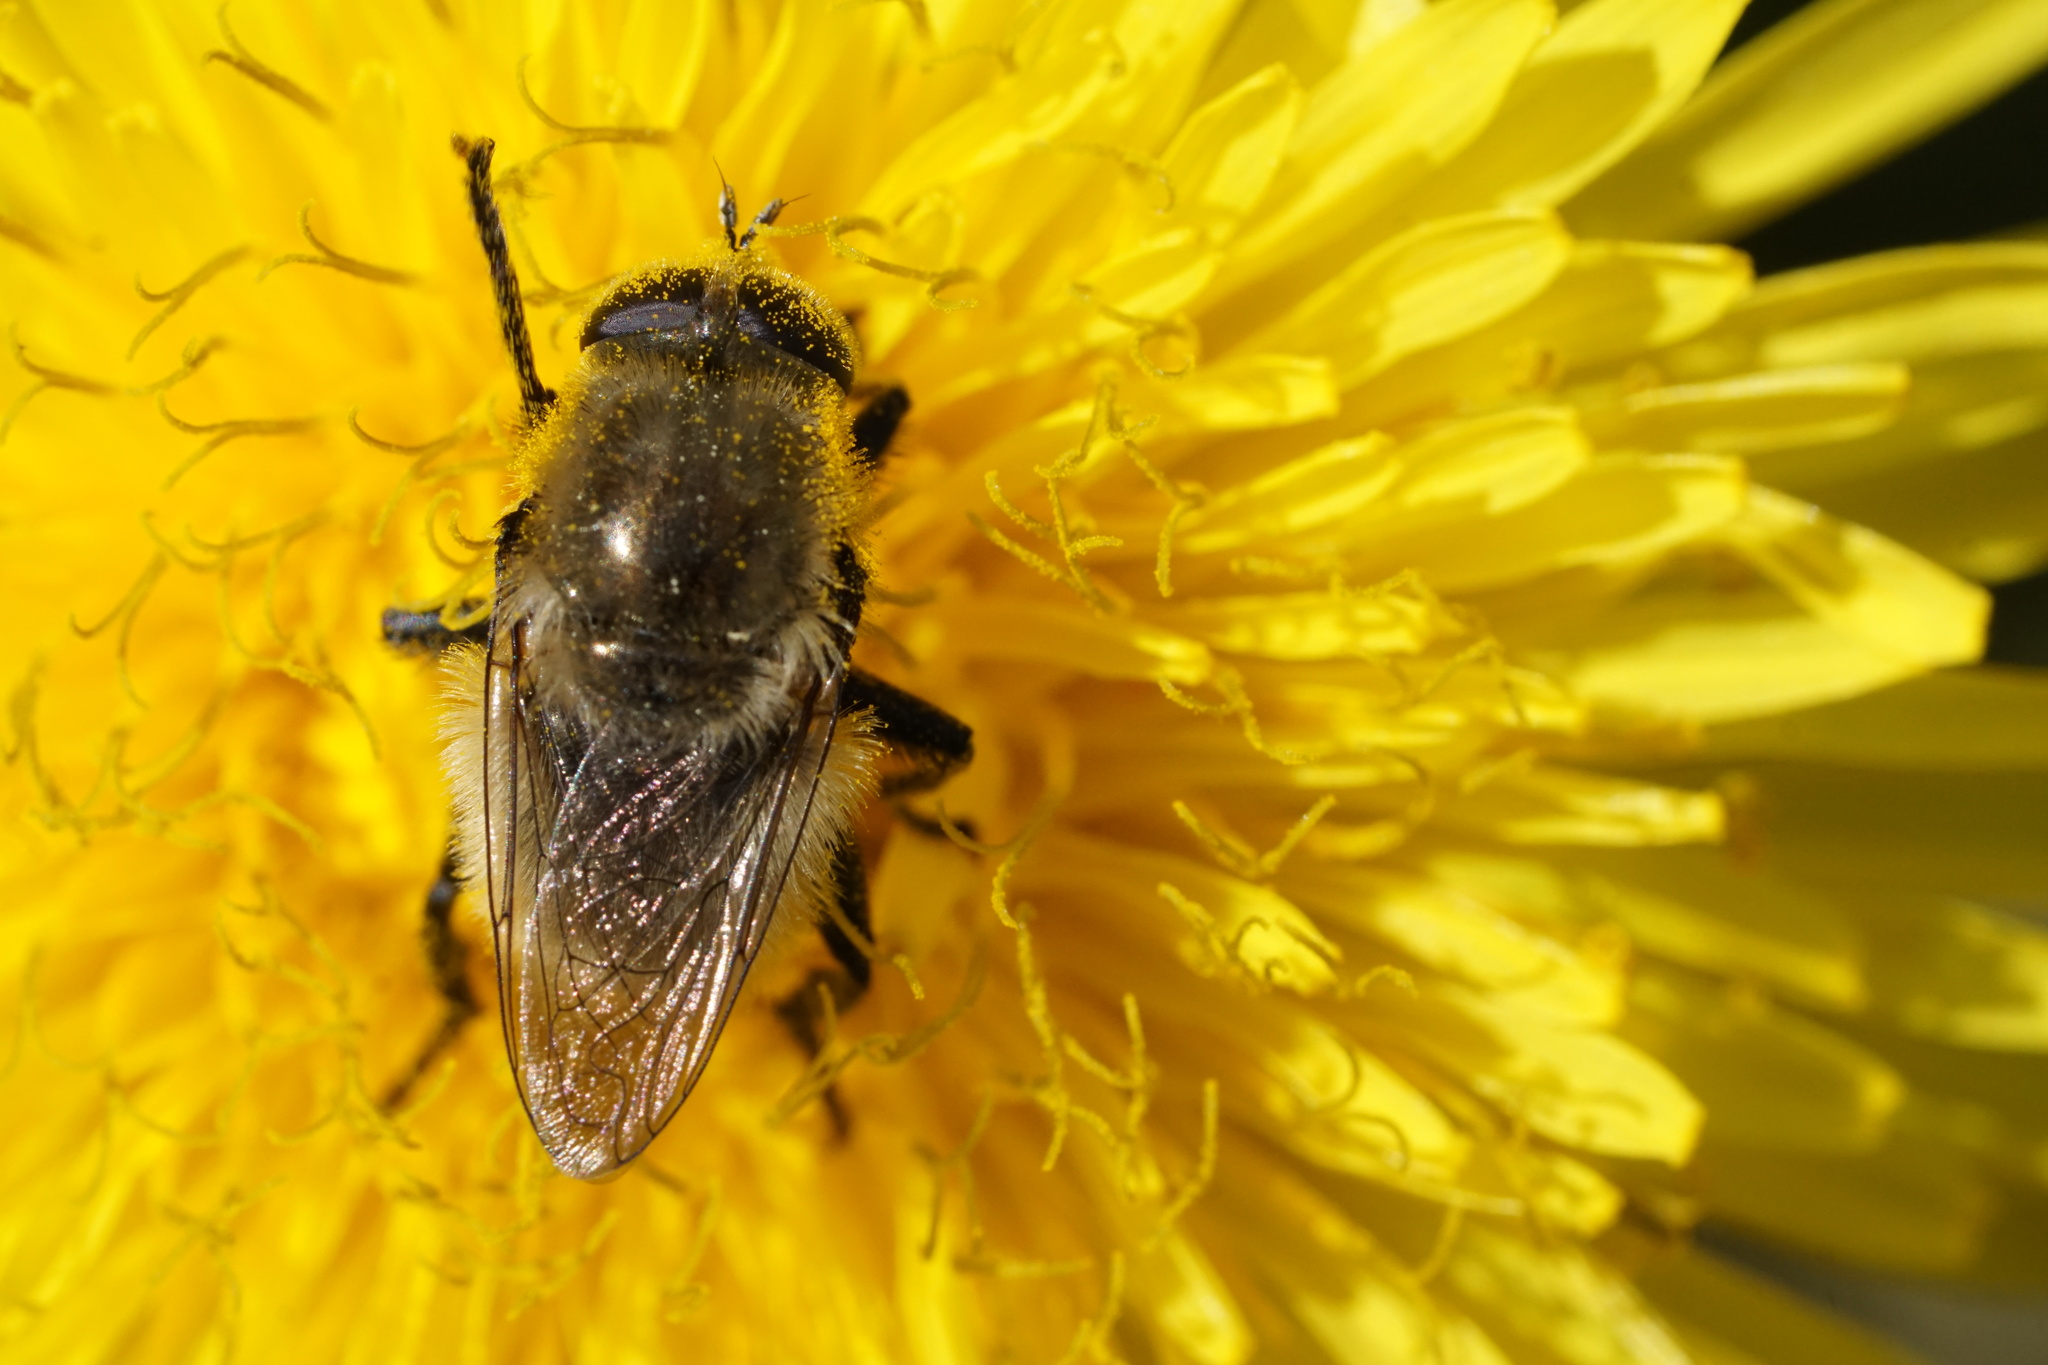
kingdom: Animalia
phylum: Arthropoda
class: Insecta
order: Diptera
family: Syrphidae
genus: Merodon
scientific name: Merodon equestris
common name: Greater bulb-fly
